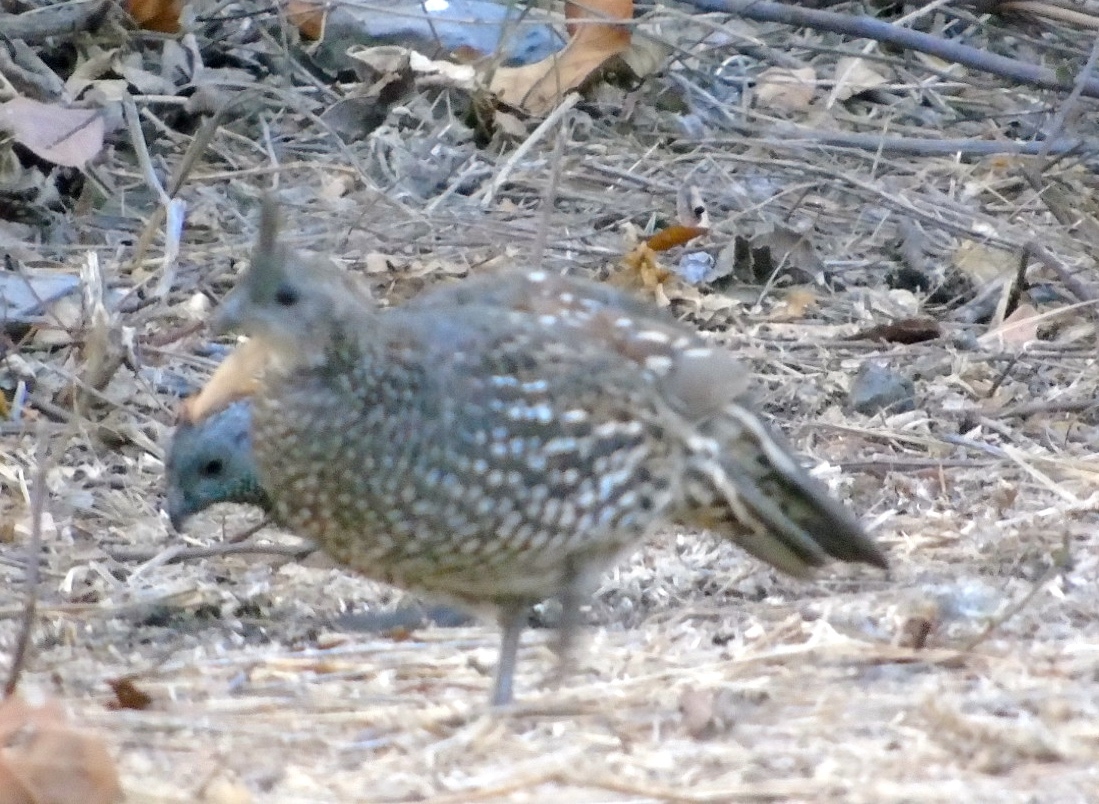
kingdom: Animalia
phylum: Chordata
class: Aves
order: Galliformes
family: Odontophoridae
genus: Callipepla
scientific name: Callipepla douglasii
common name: Elegant quail
